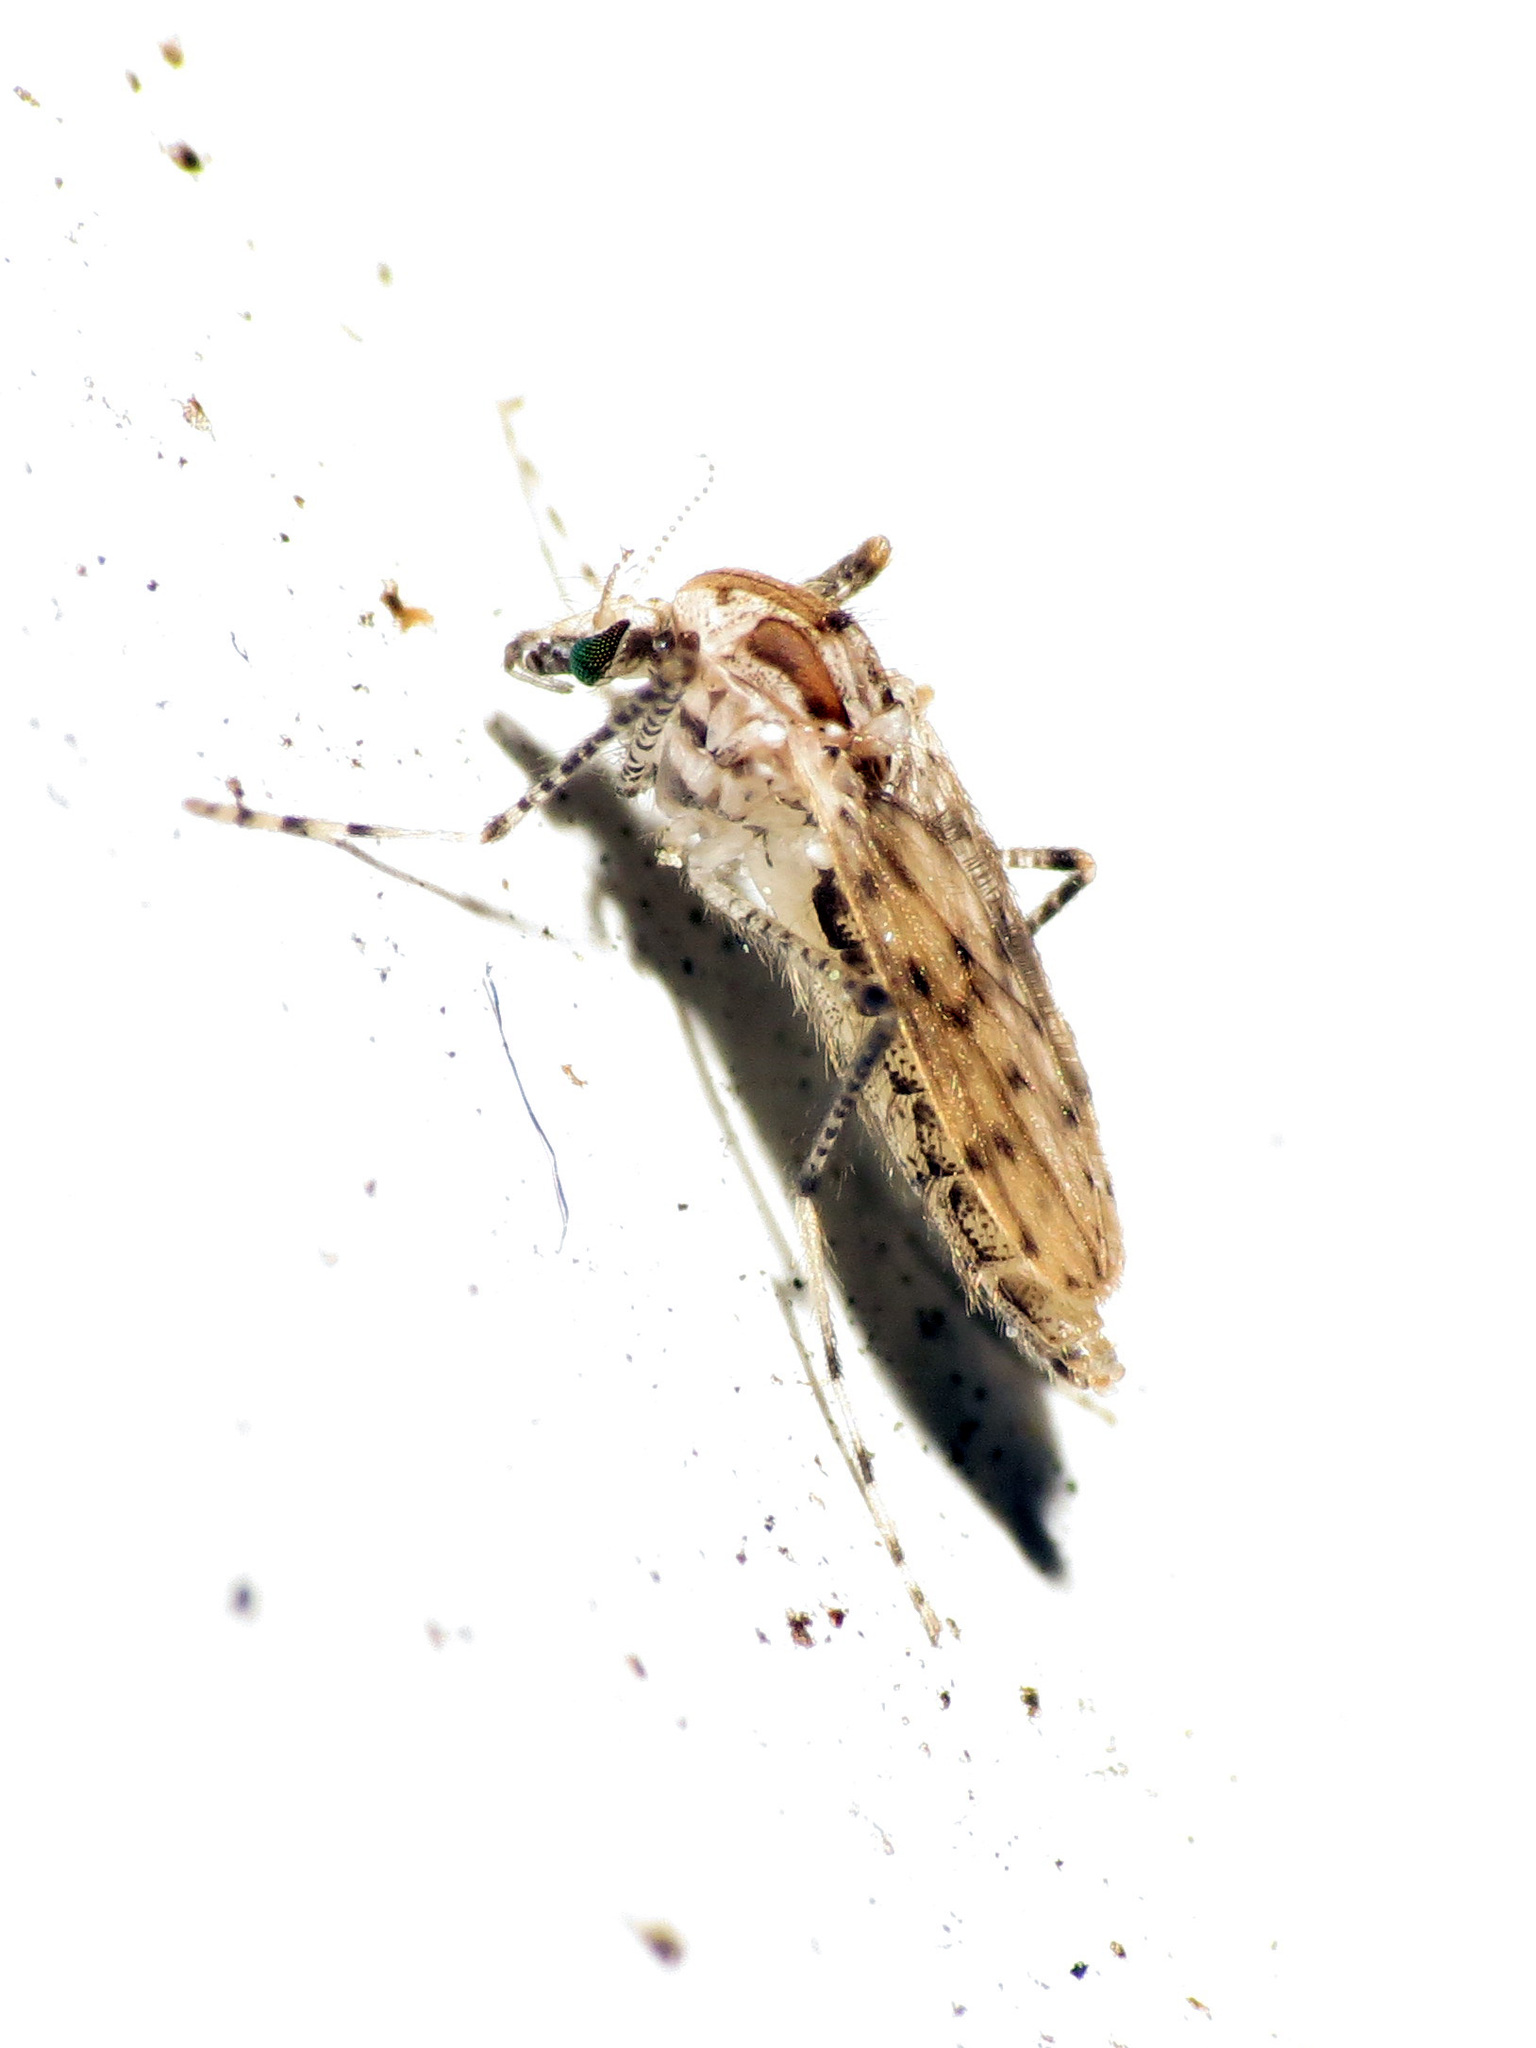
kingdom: Animalia
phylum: Arthropoda
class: Insecta
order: Diptera
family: Chaoboridae
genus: Chaoborus
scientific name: Chaoborus punctipennis
